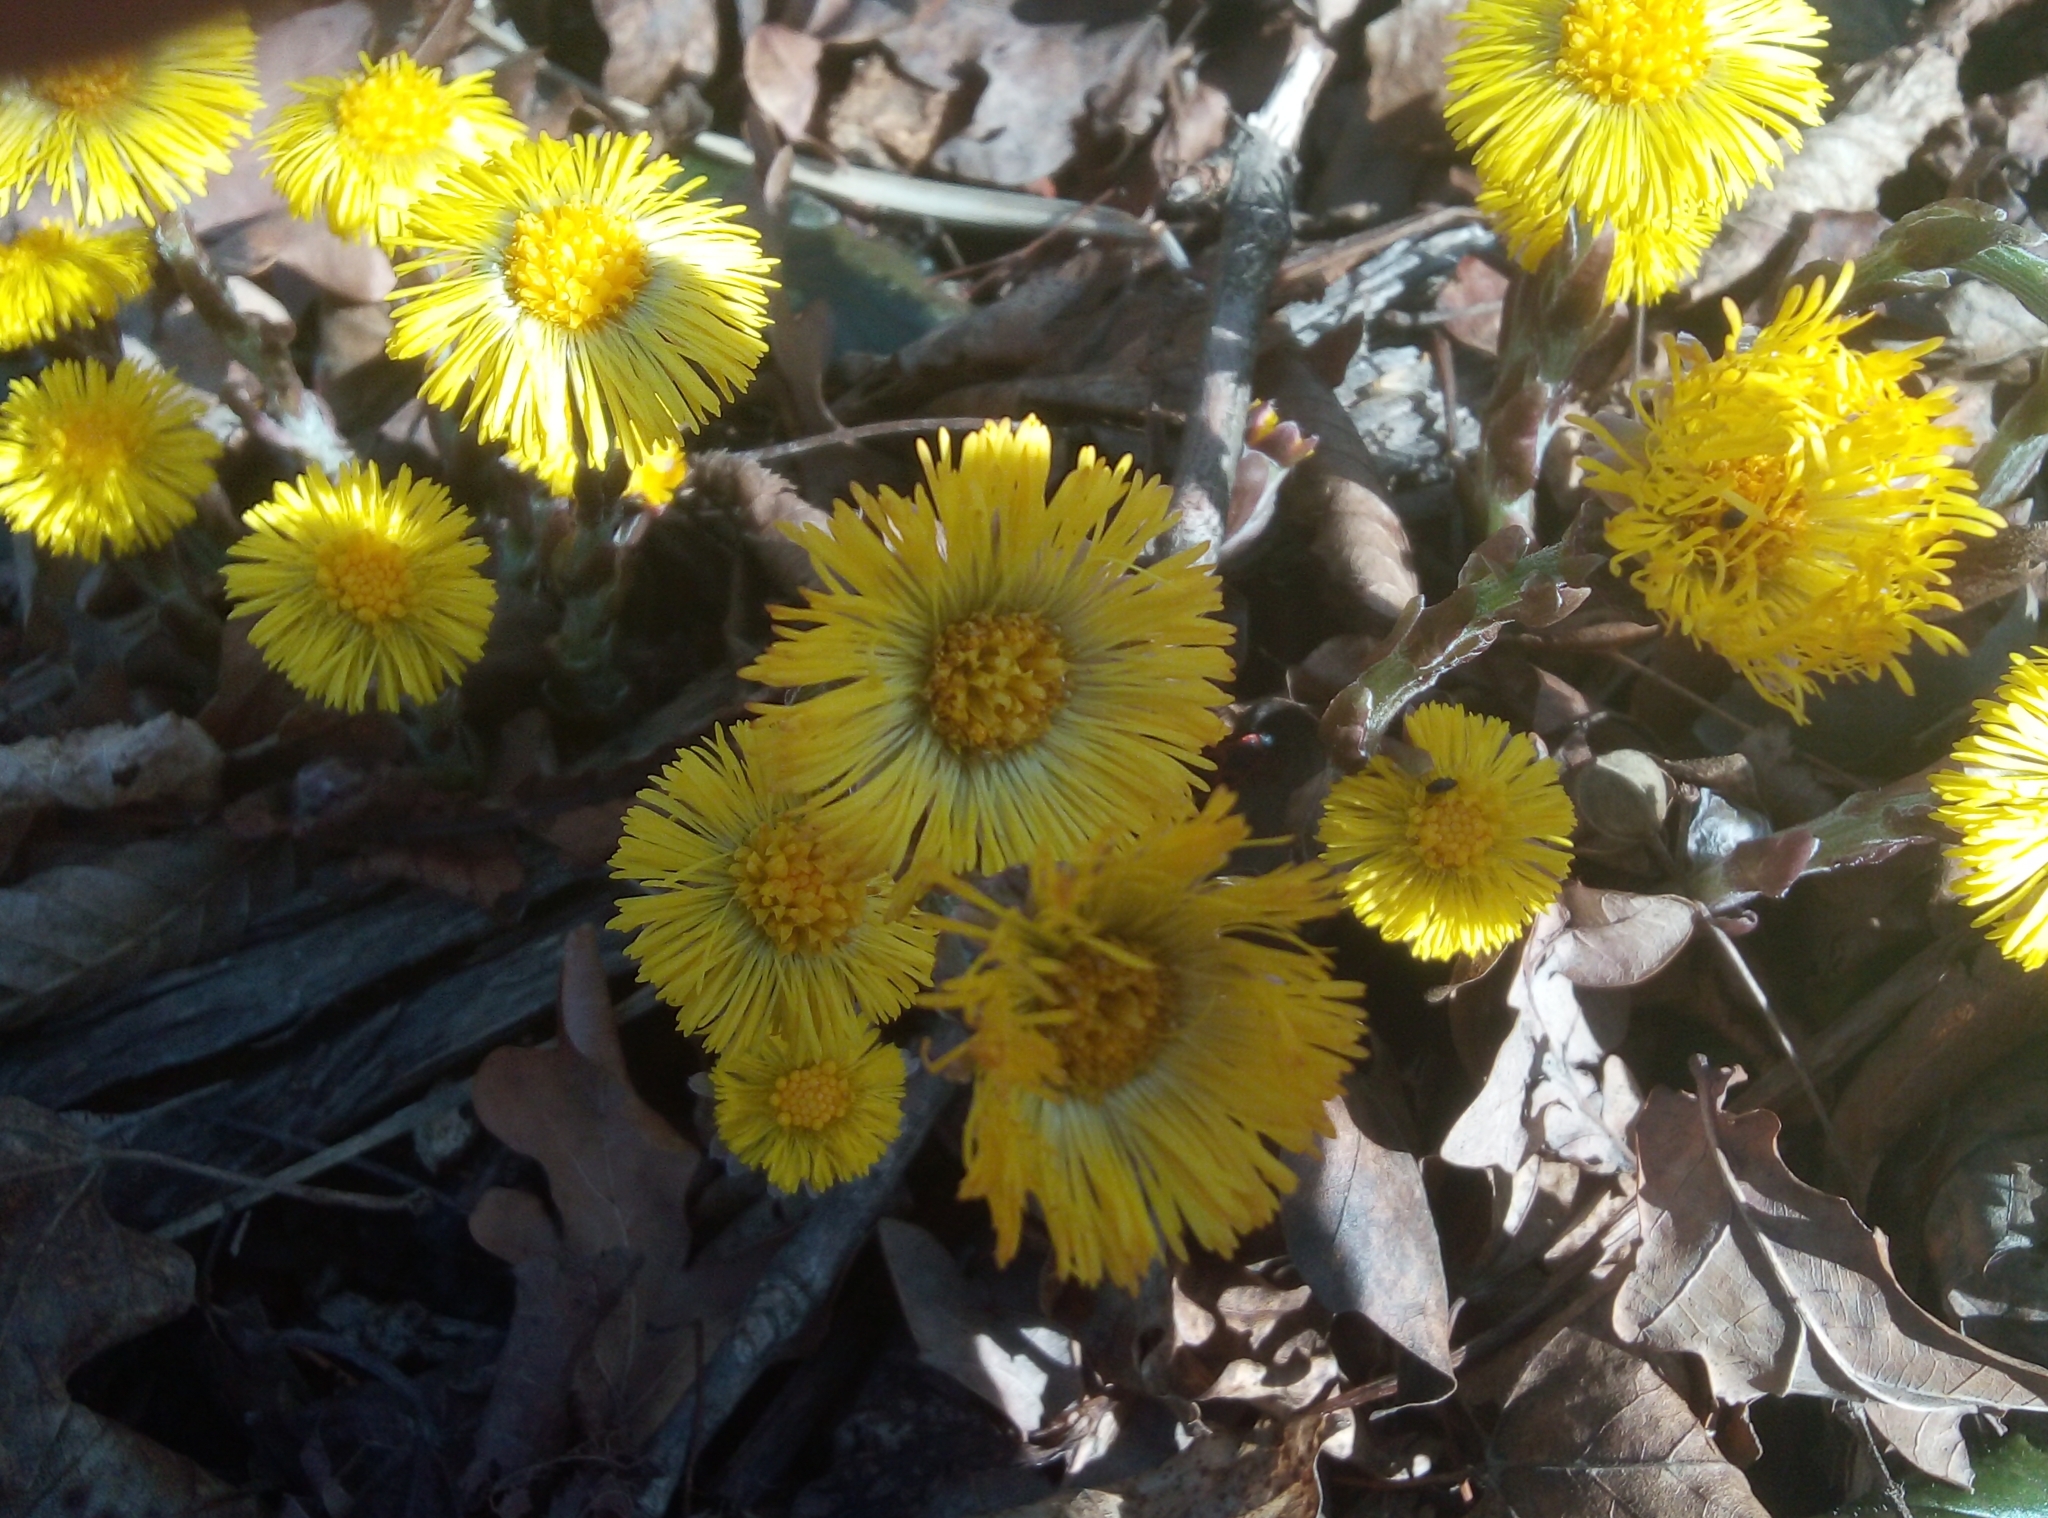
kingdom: Plantae
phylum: Tracheophyta
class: Magnoliopsida
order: Asterales
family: Asteraceae
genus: Tussilago
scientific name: Tussilago farfara
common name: Coltsfoot
